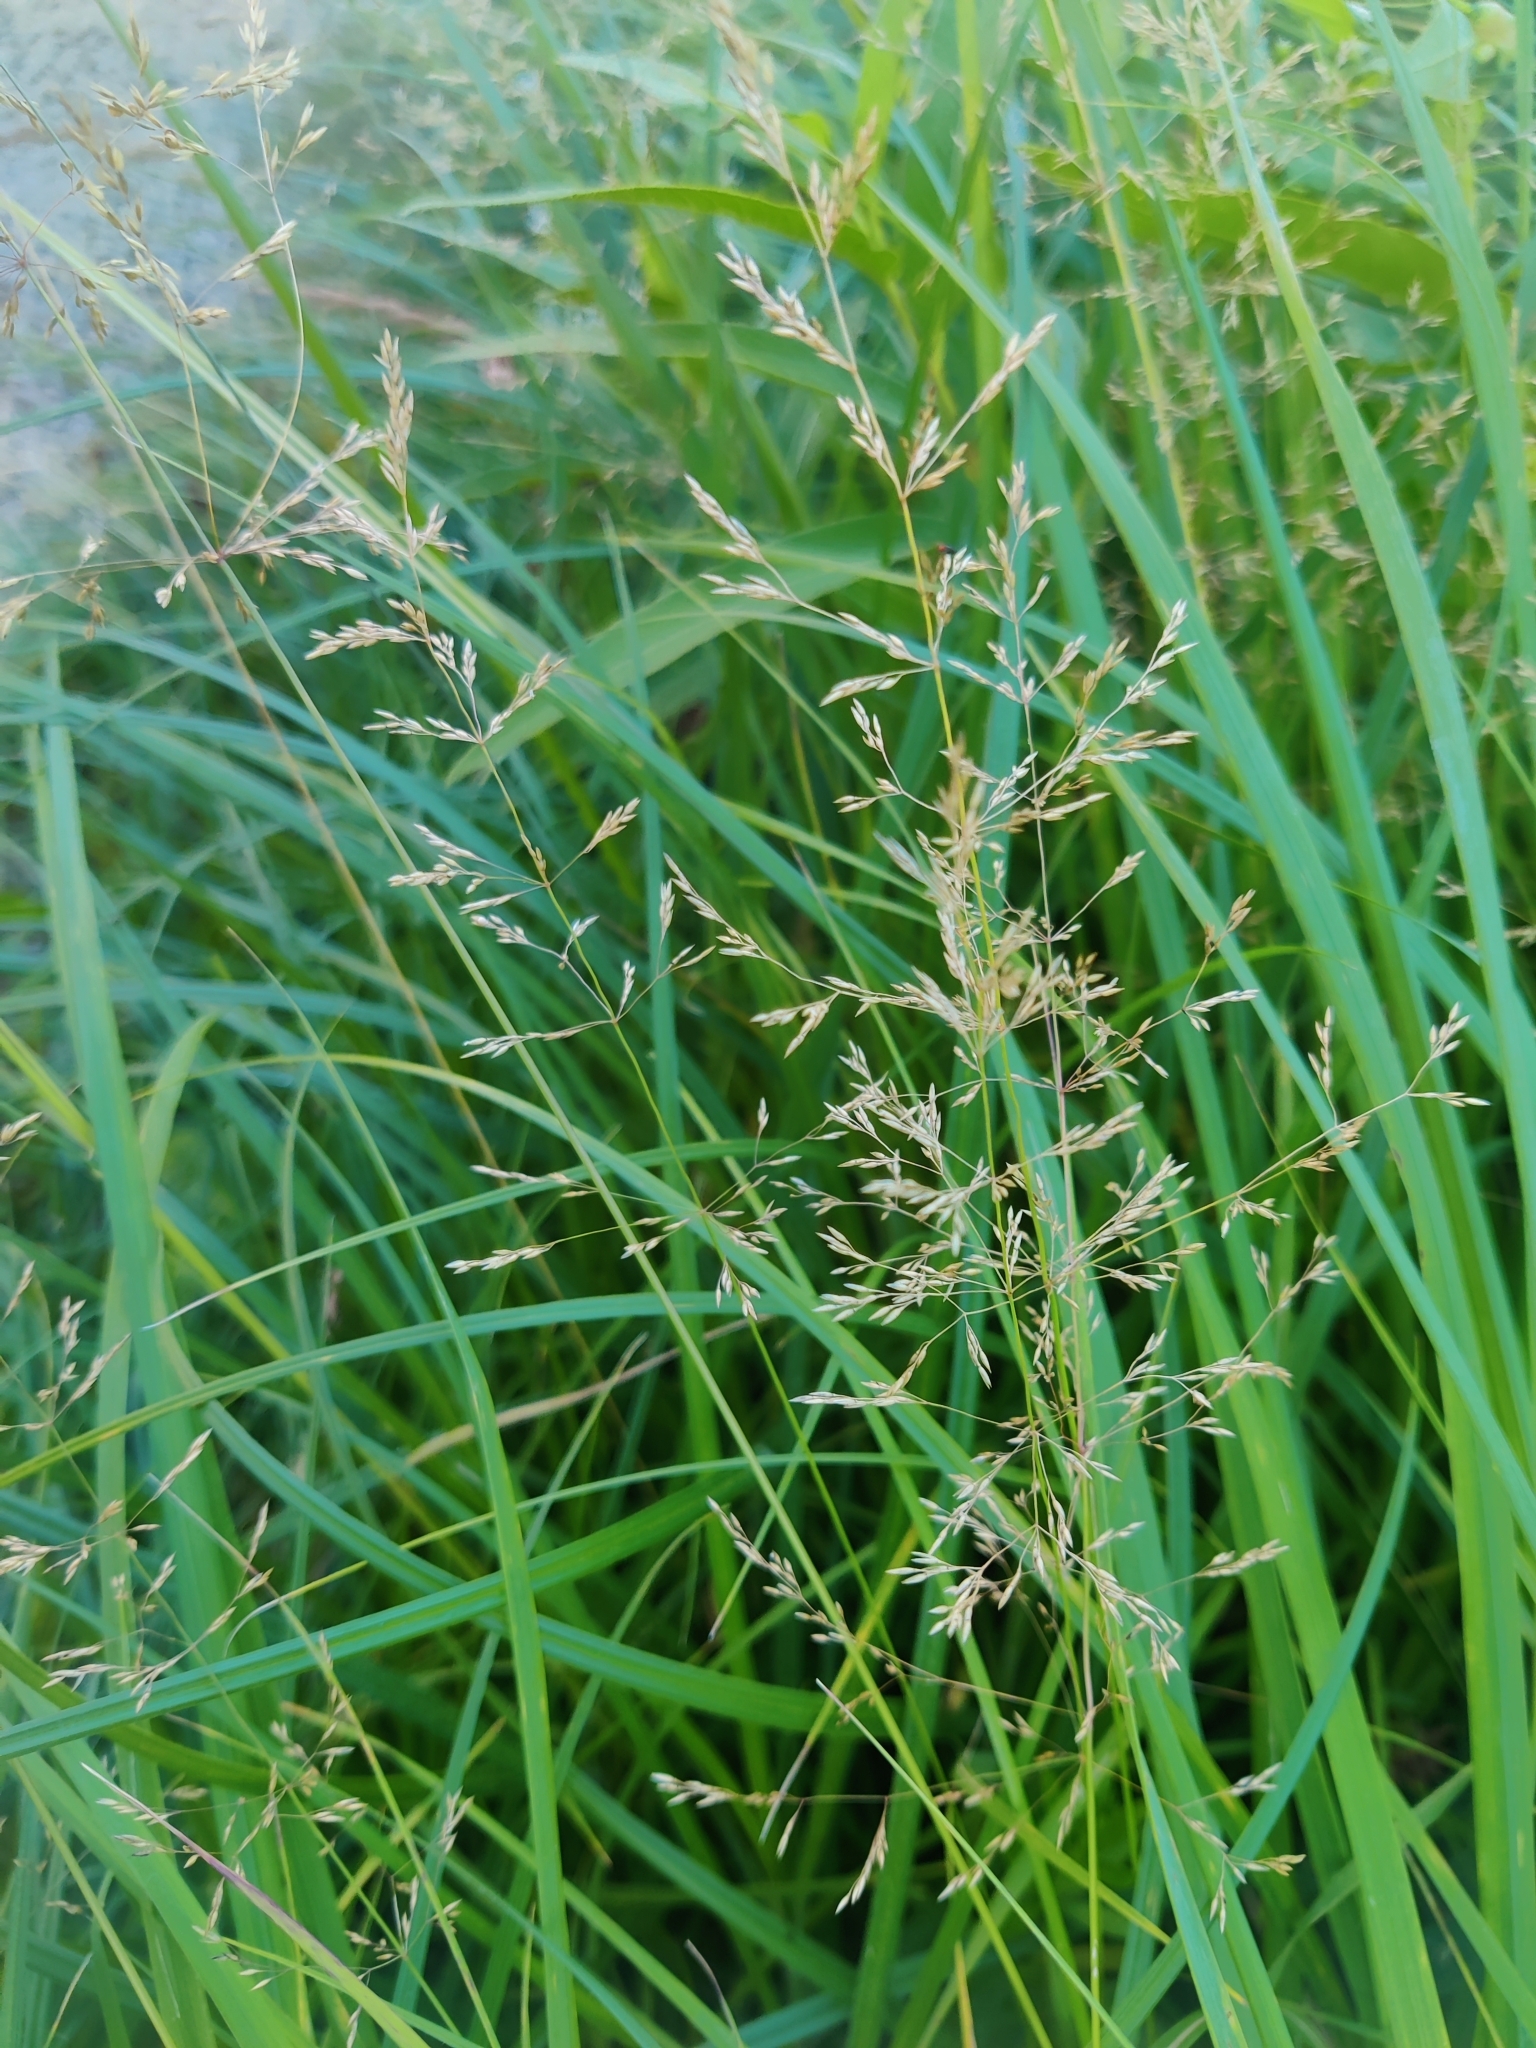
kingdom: Plantae
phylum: Tracheophyta
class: Liliopsida
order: Poales
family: Poaceae
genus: Poa
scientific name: Poa palustris
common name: Swamp meadow-grass
